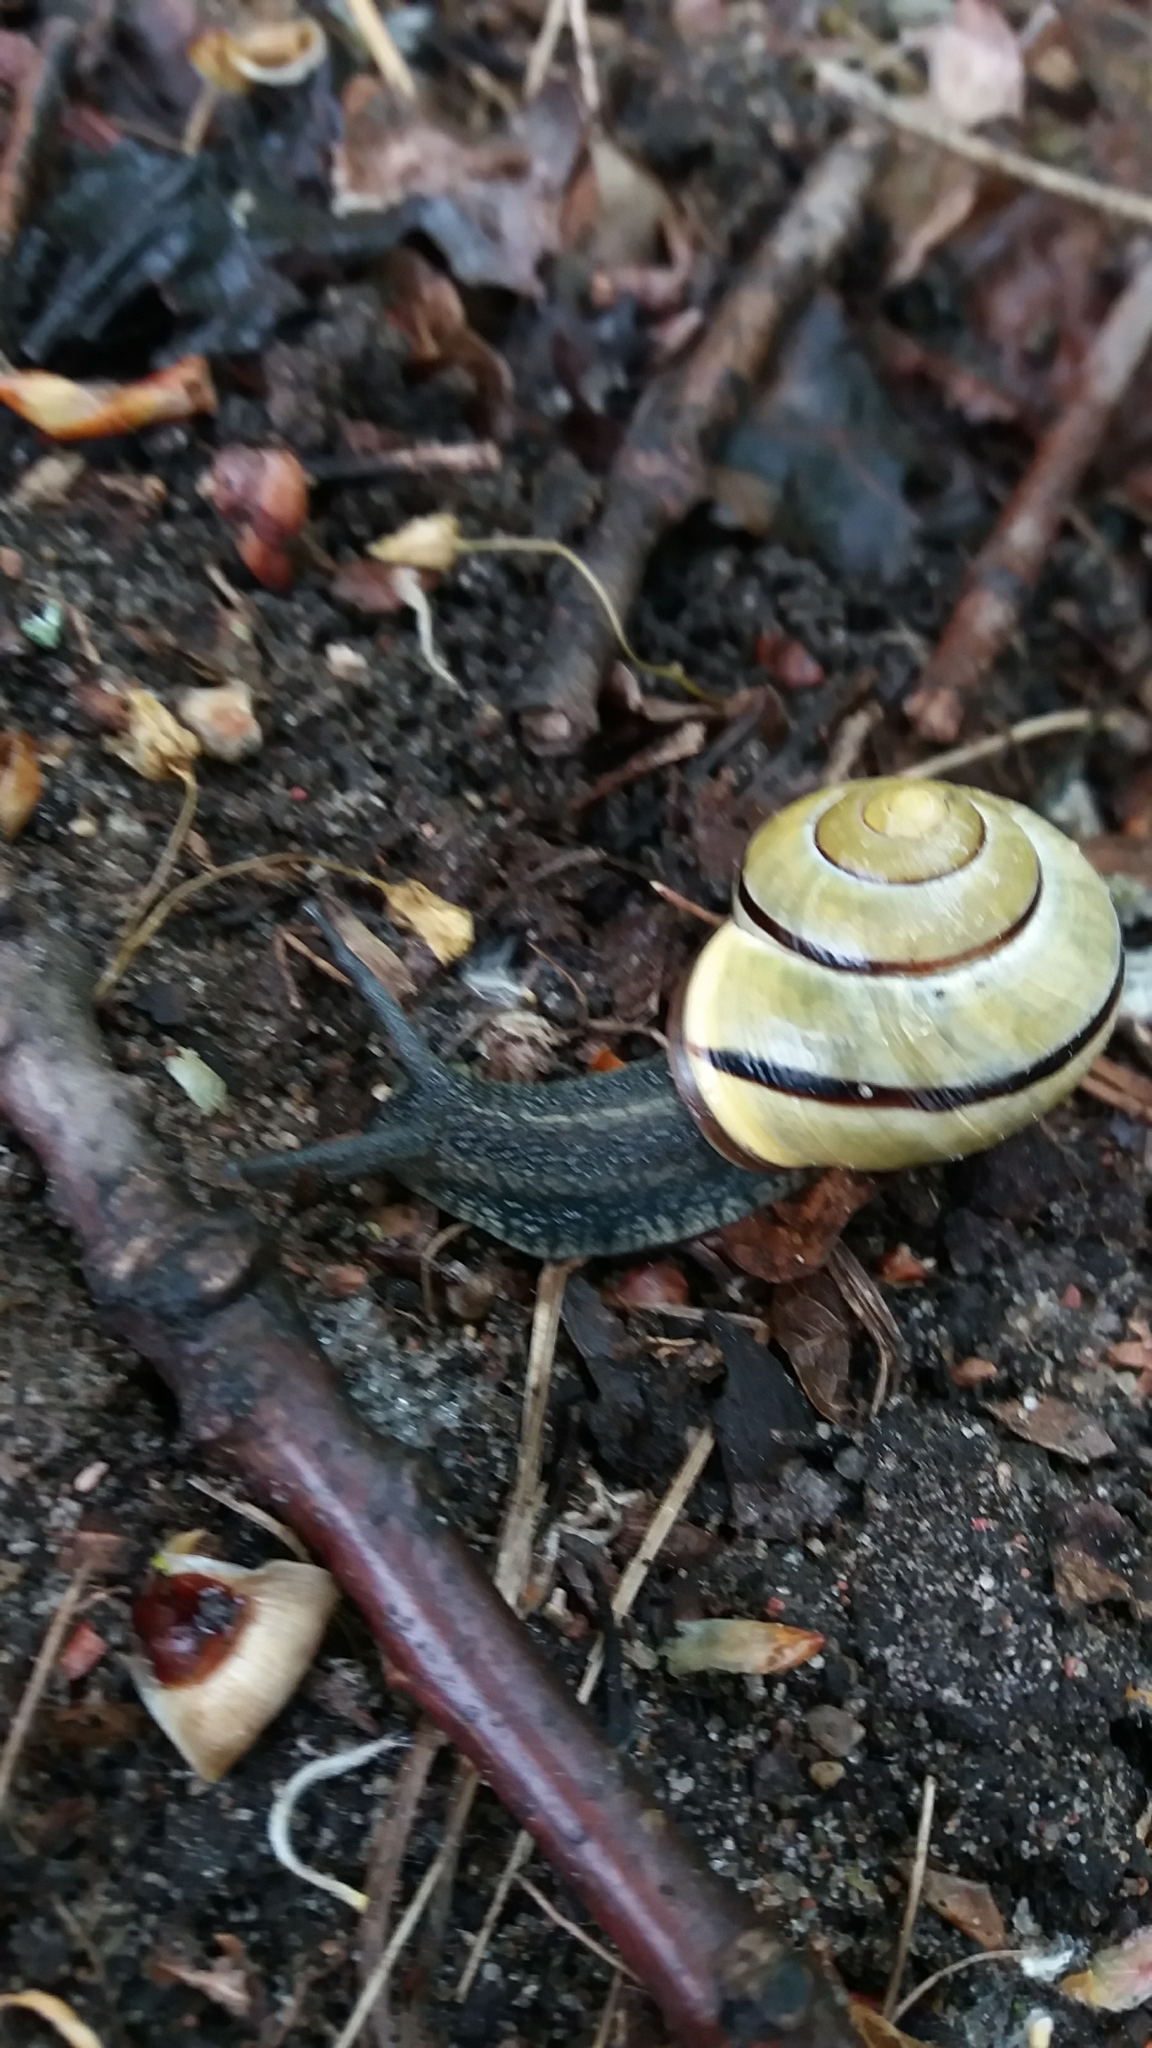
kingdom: Animalia
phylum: Mollusca
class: Gastropoda
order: Stylommatophora
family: Helicidae
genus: Cepaea
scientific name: Cepaea nemoralis
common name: Grovesnail
